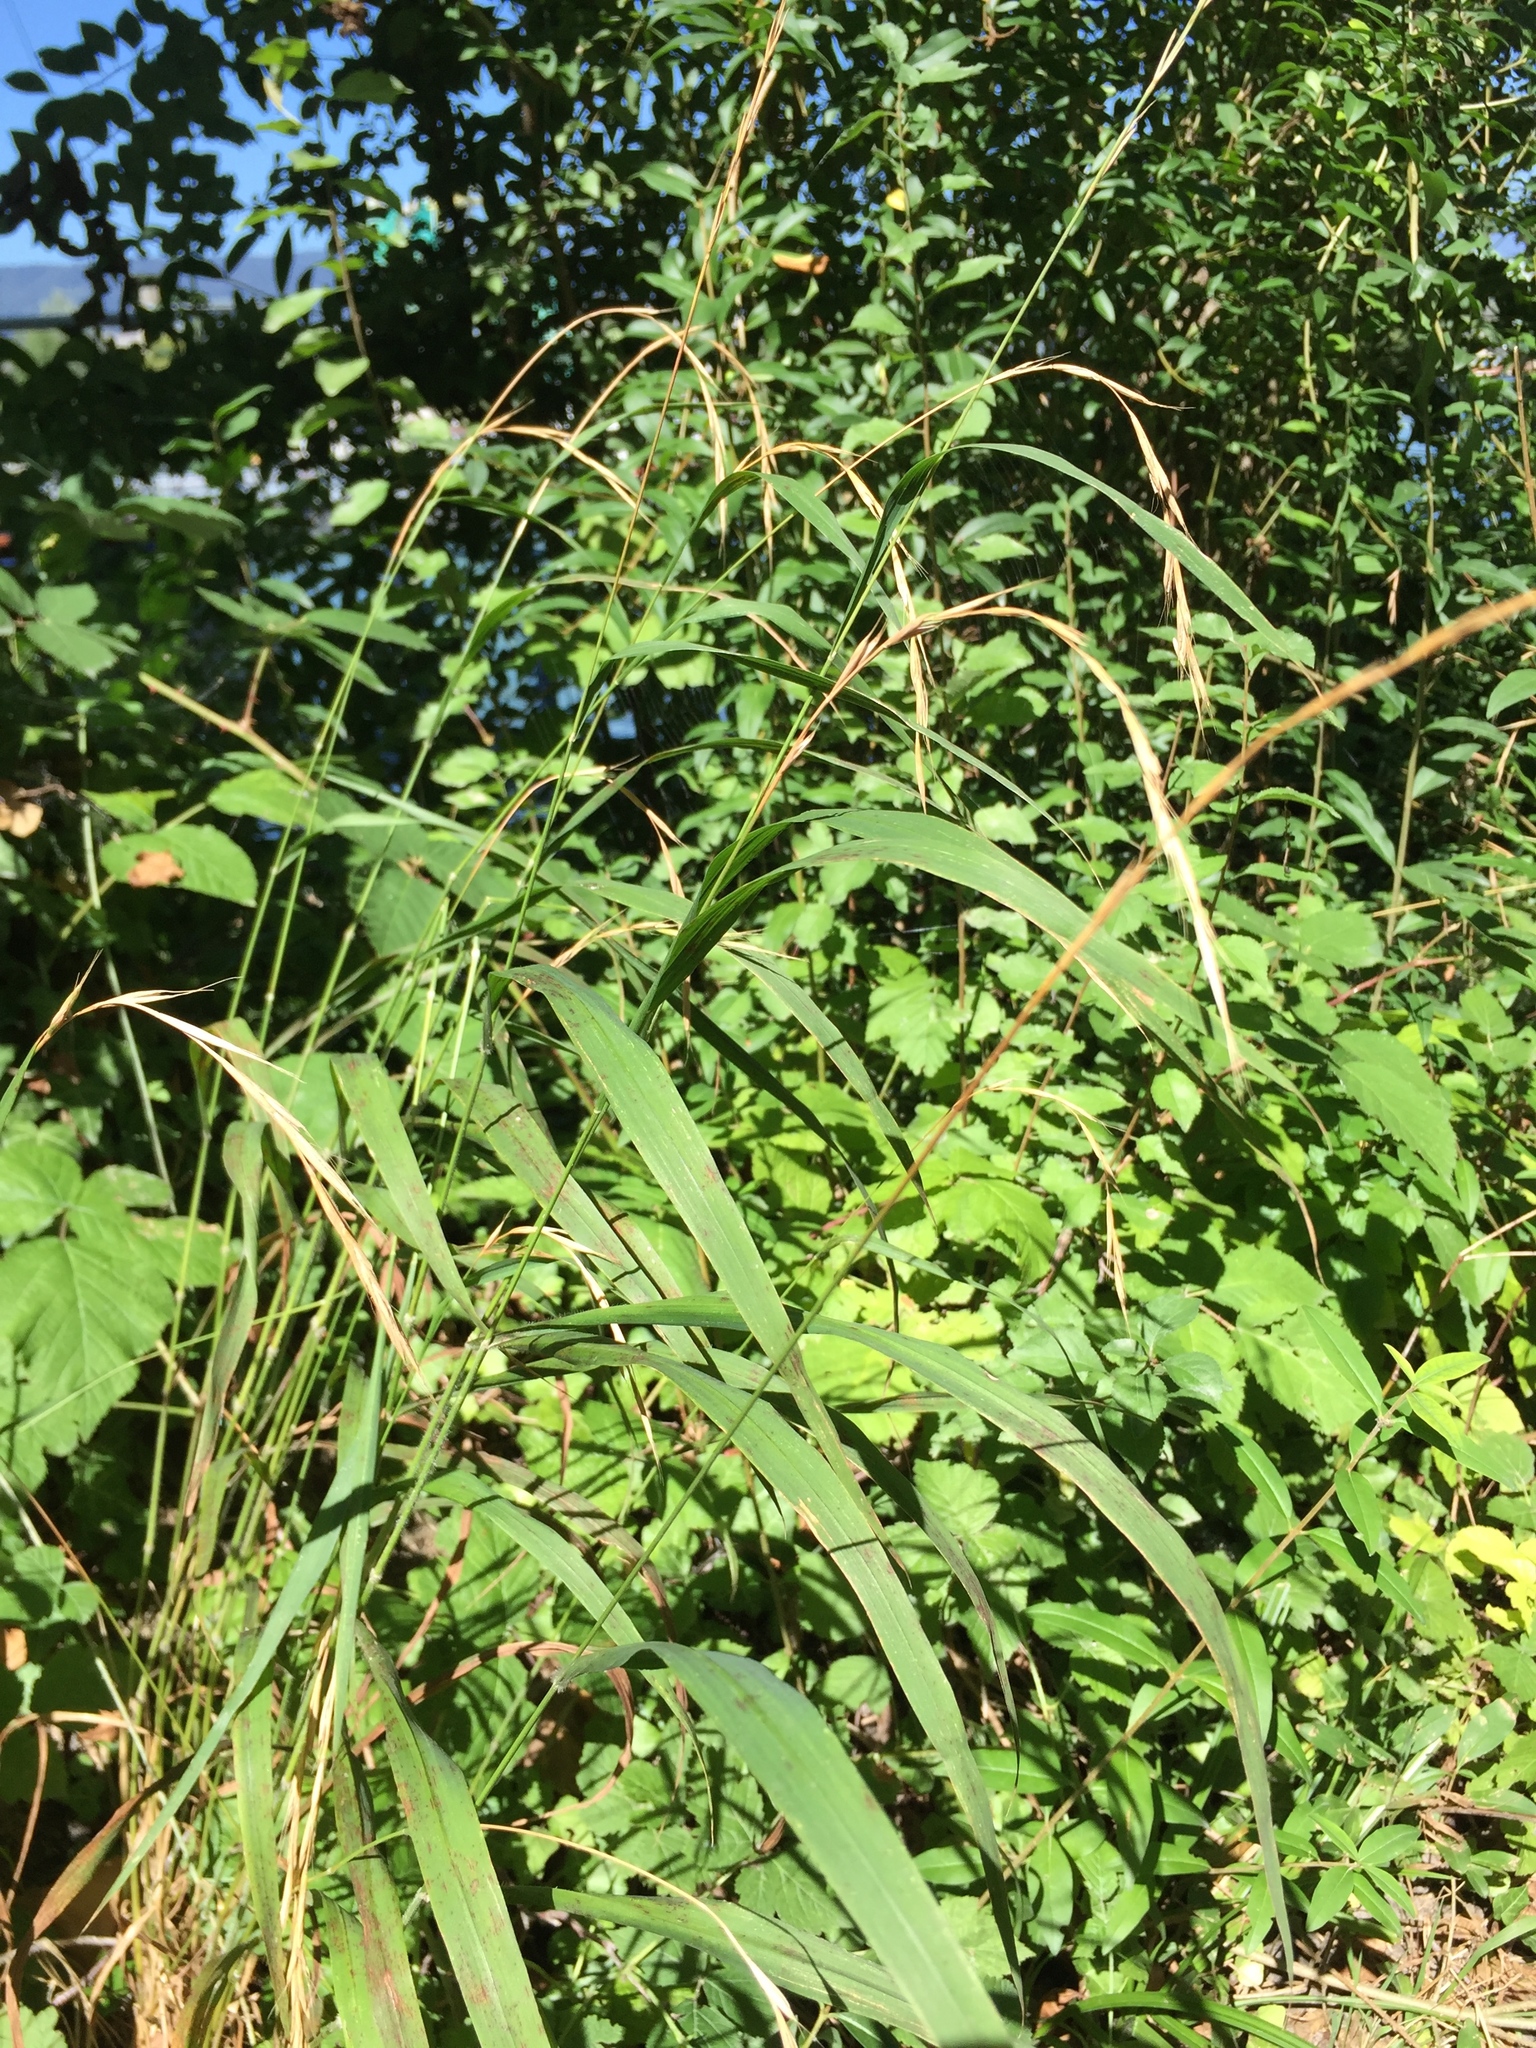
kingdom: Plantae
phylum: Tracheophyta
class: Liliopsida
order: Poales
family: Poaceae
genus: Brachypodium
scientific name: Brachypodium sylvaticum
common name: False-brome
